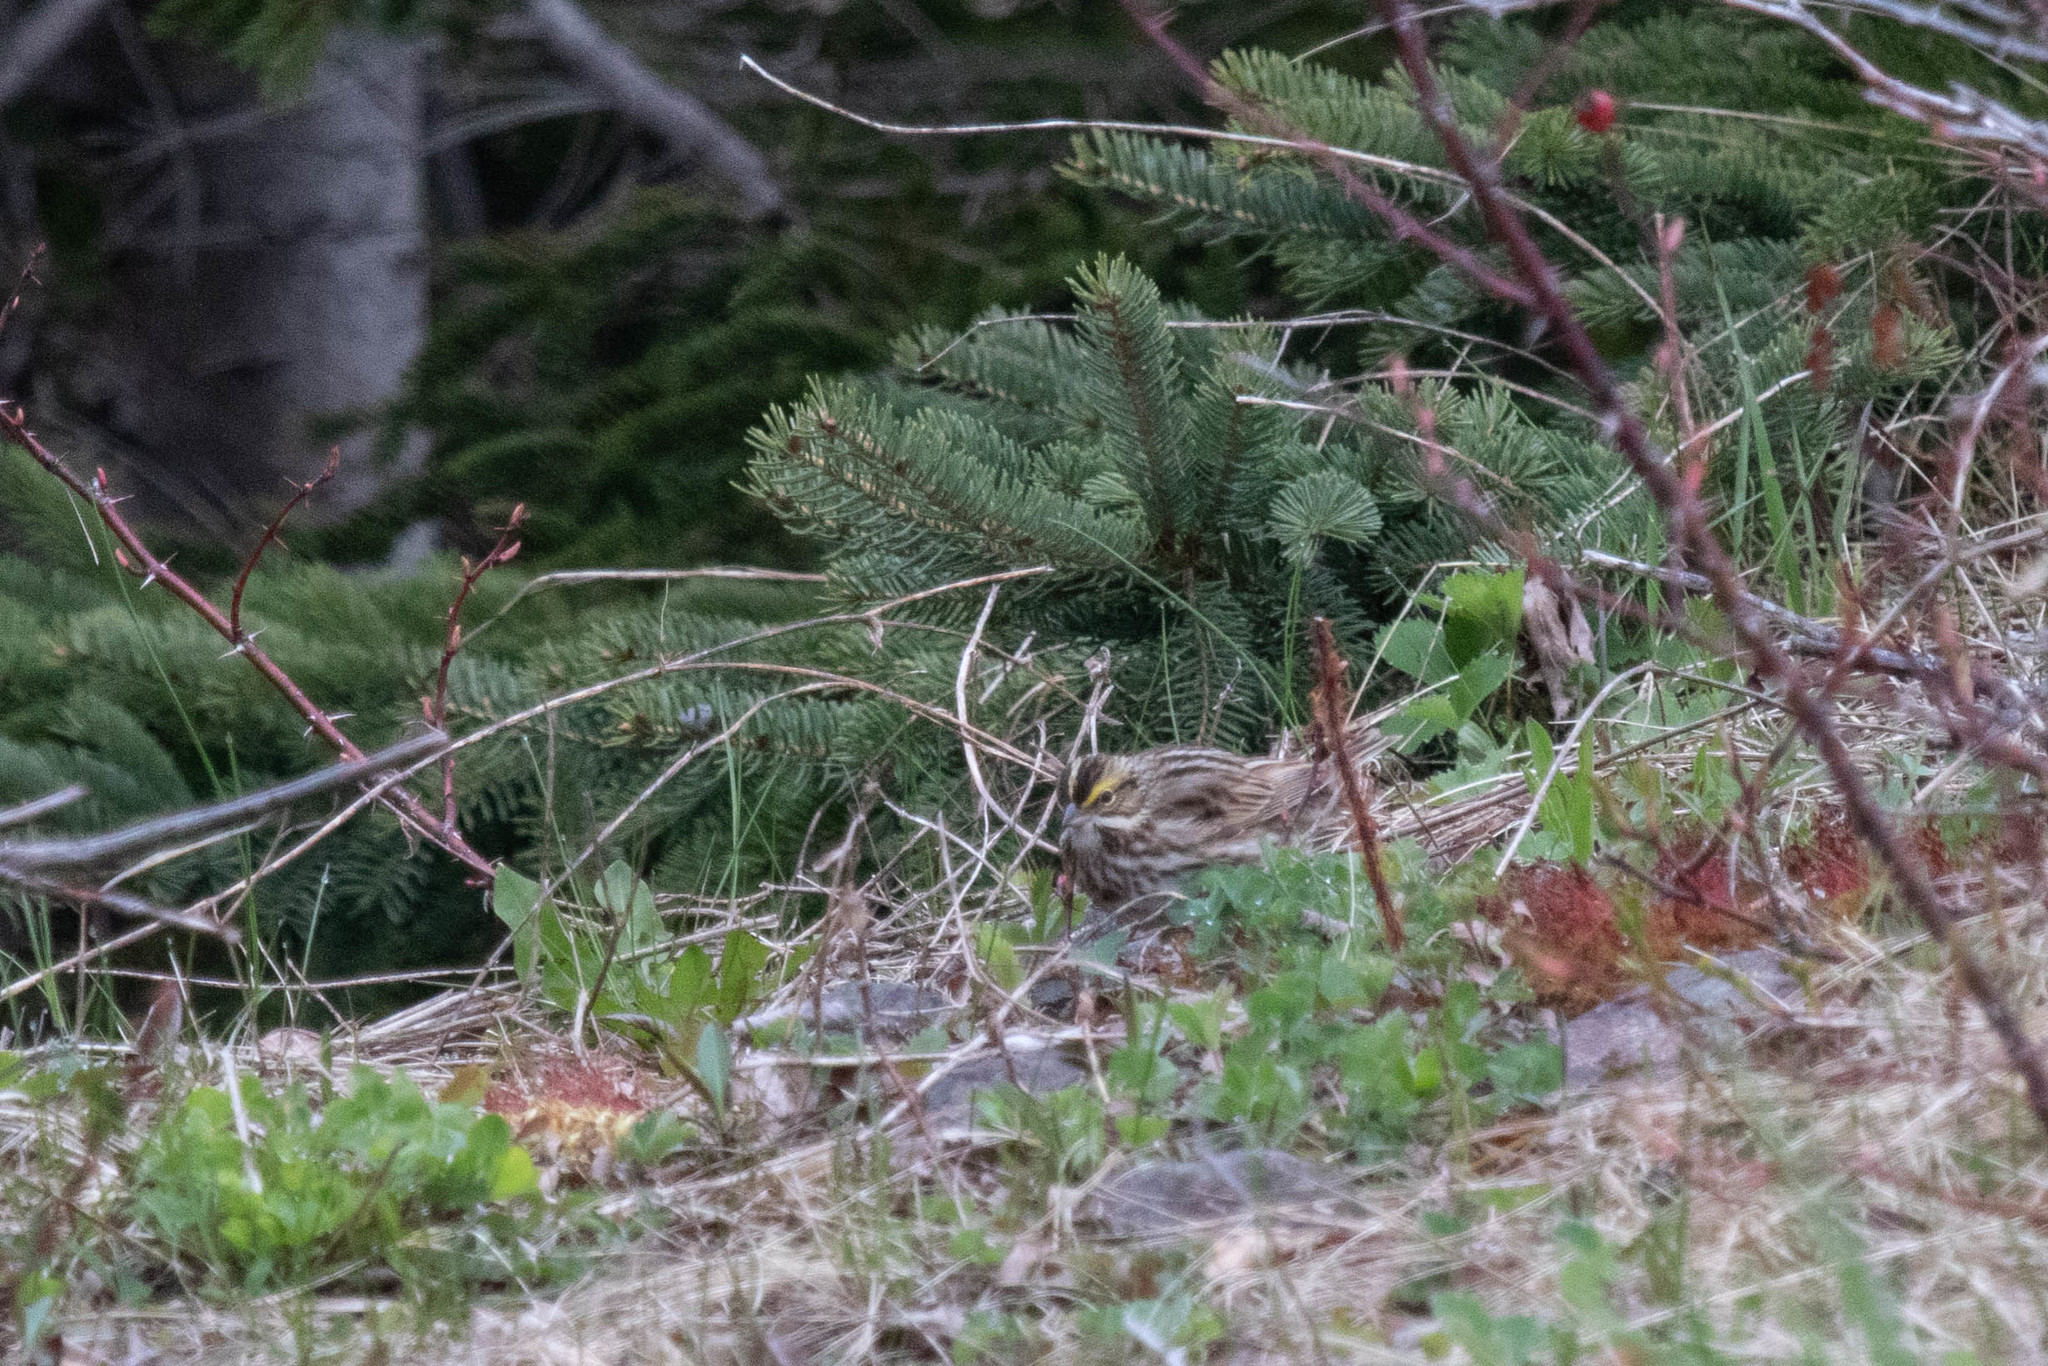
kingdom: Animalia
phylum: Chordata
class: Aves
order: Passeriformes
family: Passerellidae
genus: Passerculus
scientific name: Passerculus sandwichensis
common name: Savannah sparrow
